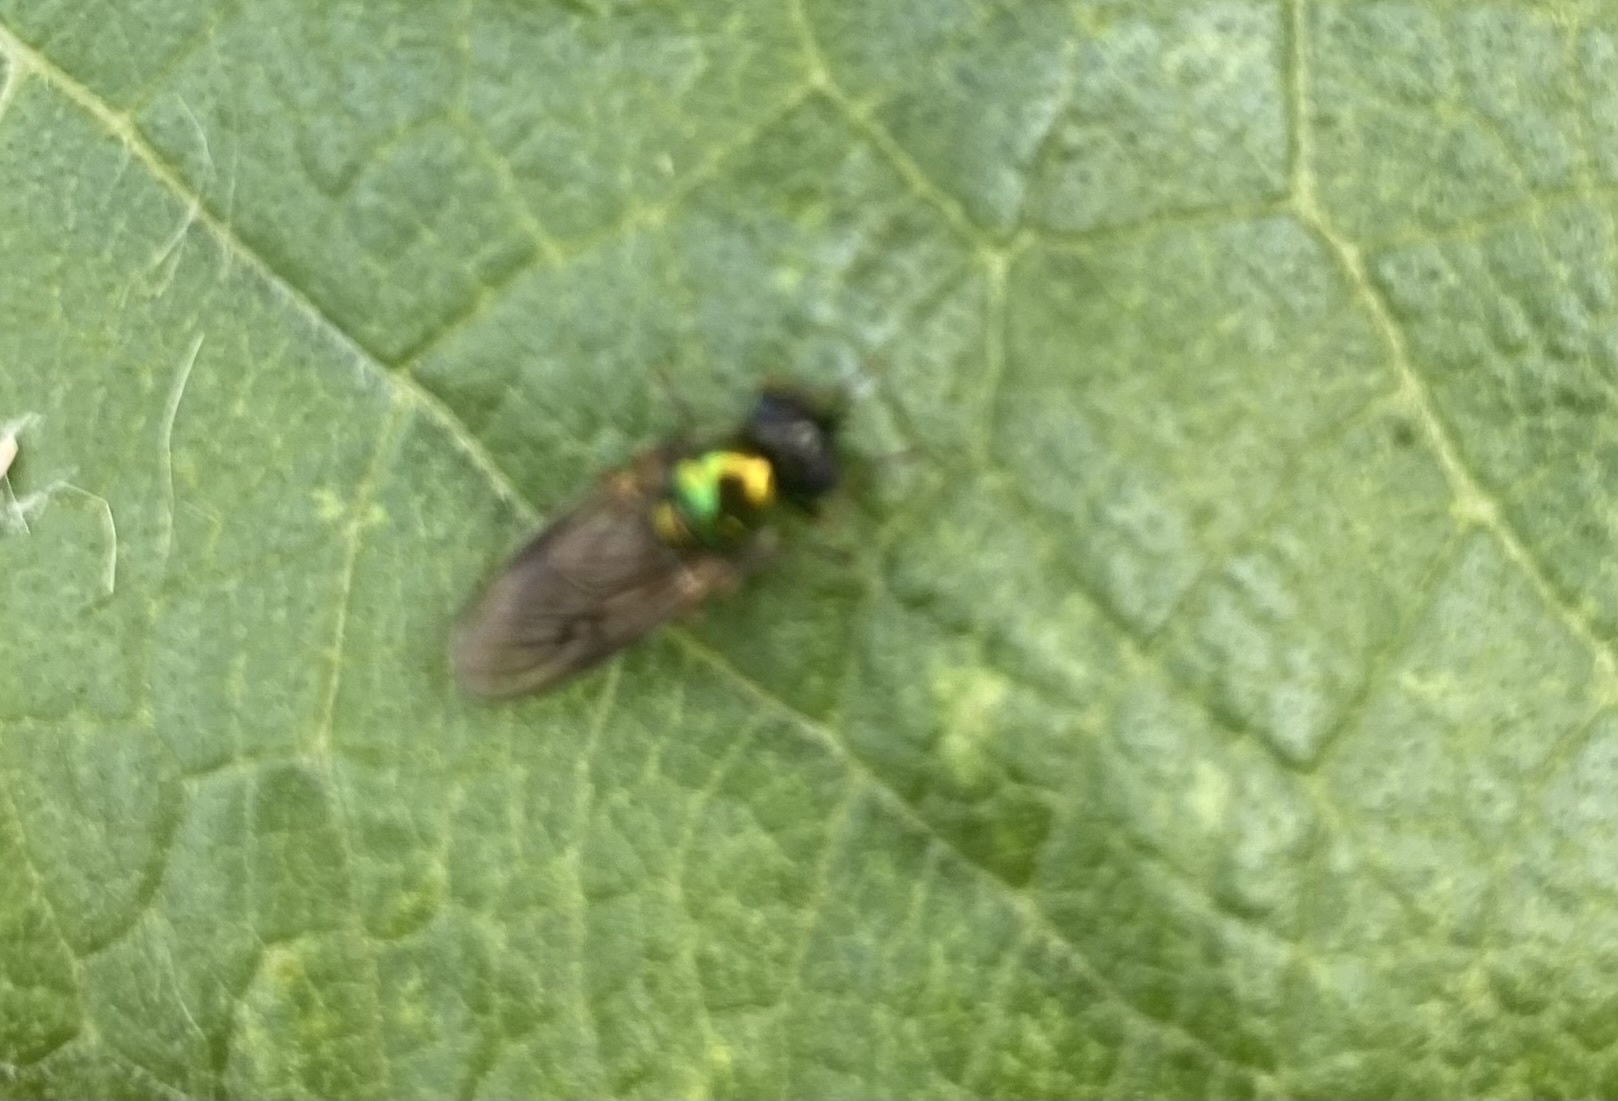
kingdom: Animalia
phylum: Arthropoda
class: Insecta
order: Diptera
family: Stratiomyidae
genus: Chloromyia
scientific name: Chloromyia formosa
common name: Soldier fly
